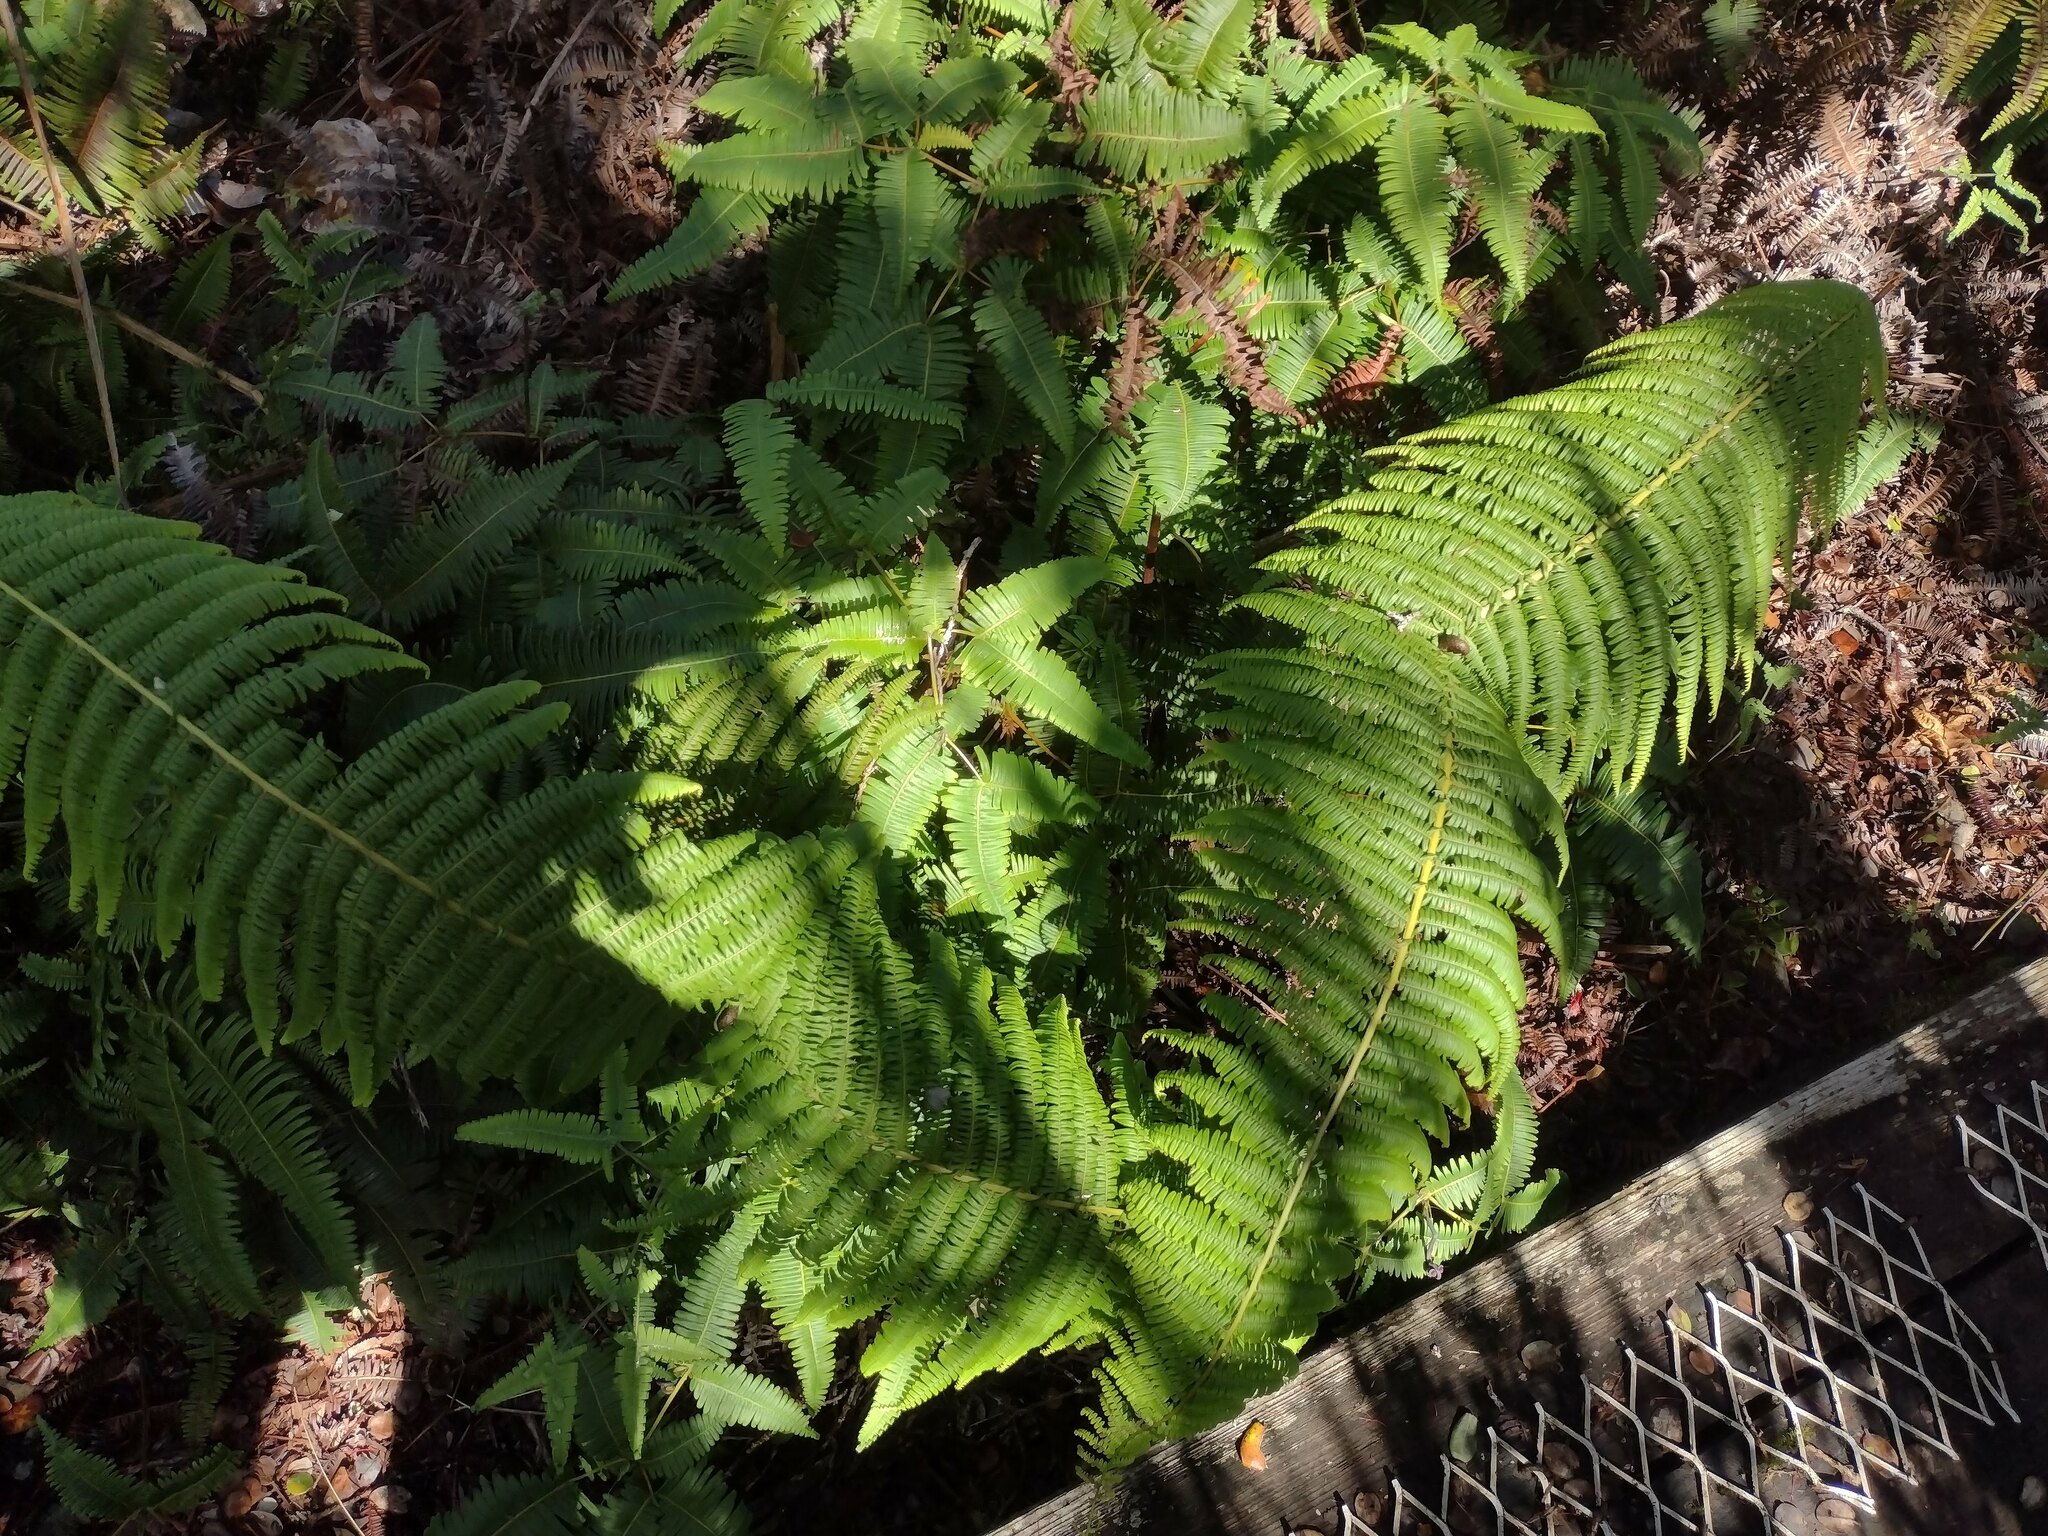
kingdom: Plantae
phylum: Tracheophyta
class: Polypodiopsida
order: Gleicheniales
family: Gleicheniaceae
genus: Diplopterygium
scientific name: Diplopterygium pinnatum
